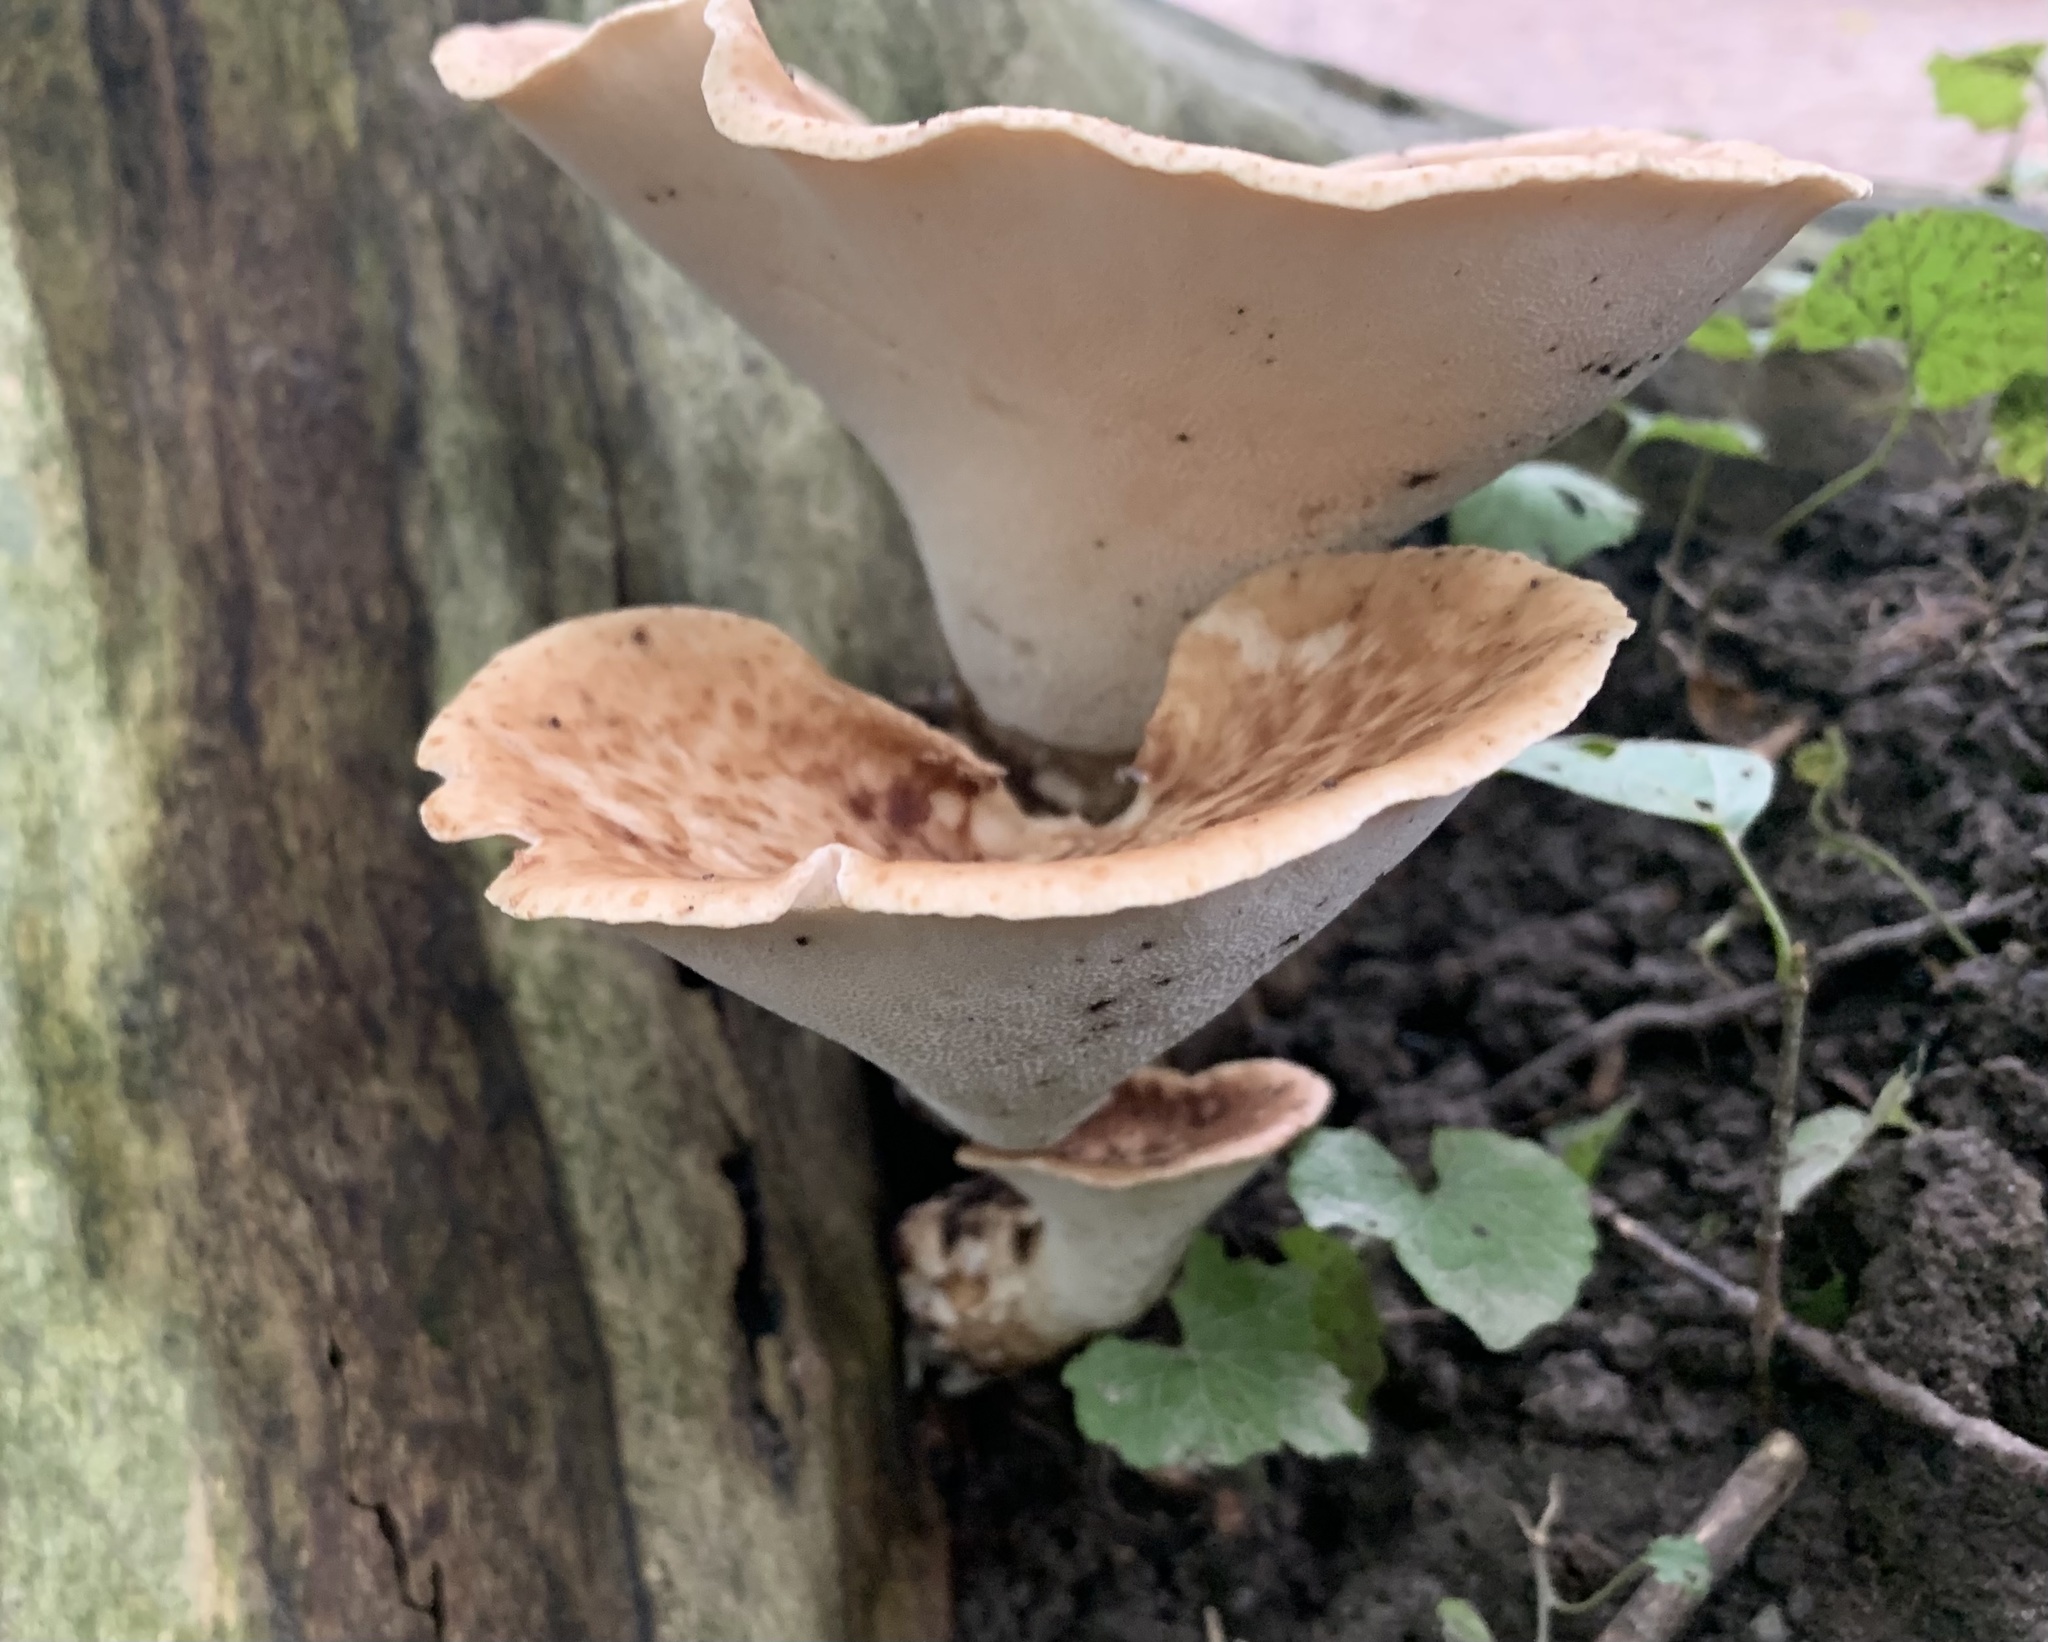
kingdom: Fungi
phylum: Basidiomycota
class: Agaricomycetes
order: Polyporales
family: Polyporaceae
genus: Cerioporus
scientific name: Cerioporus squamosus
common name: Dryad's saddle
